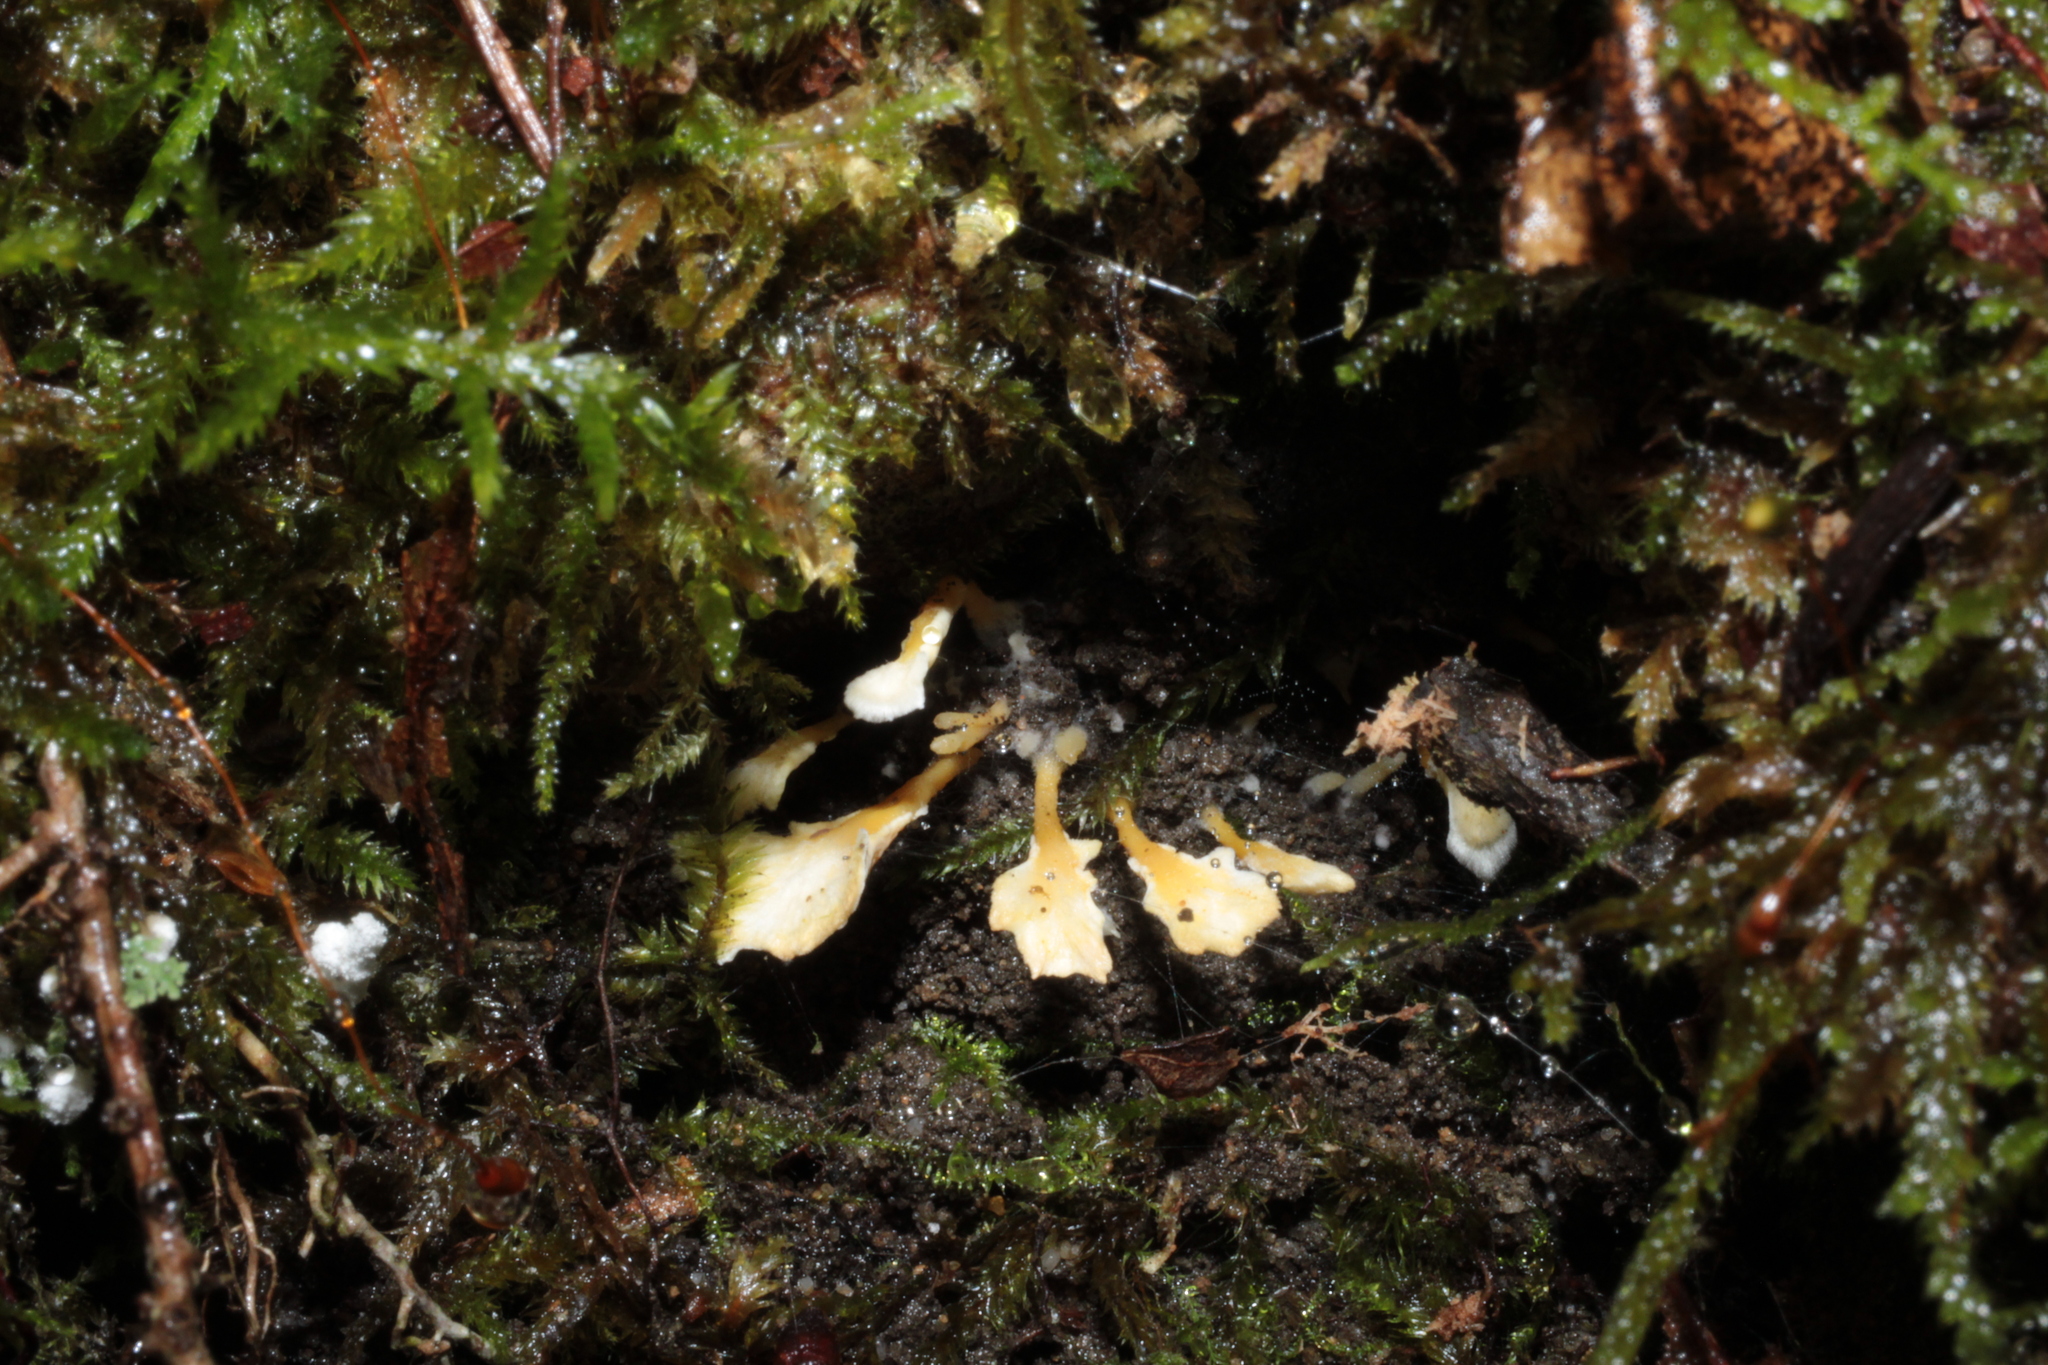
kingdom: Fungi
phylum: Ascomycota
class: Sordariomycetes
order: Hypocreales
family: Cordycipitaceae
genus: Cordyceps
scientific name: Cordyceps tenuipes
